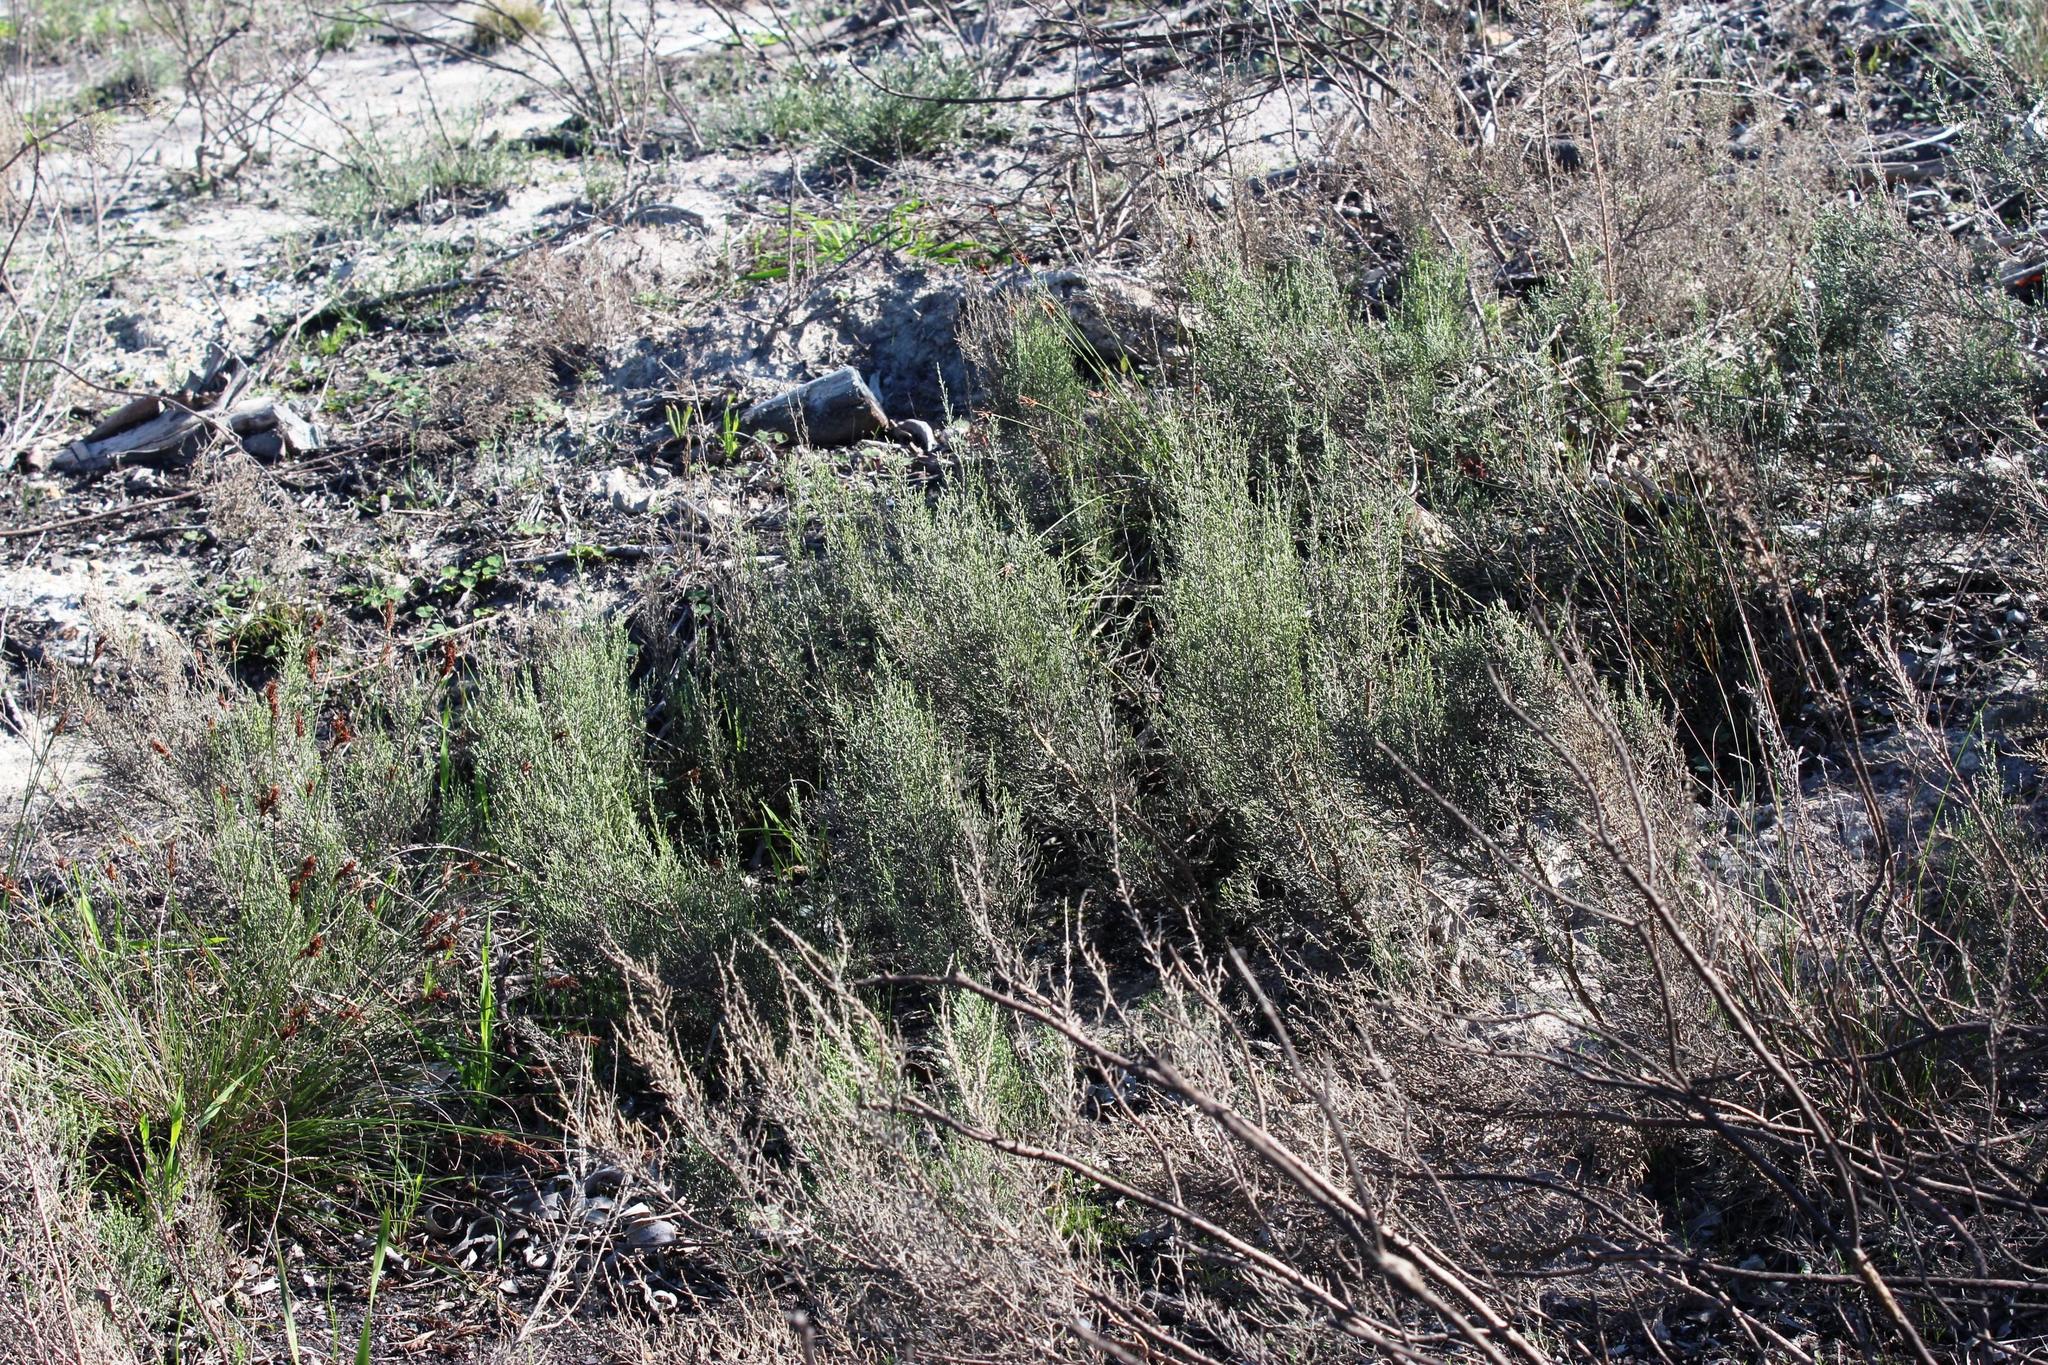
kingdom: Plantae
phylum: Tracheophyta
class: Magnoliopsida
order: Asterales
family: Asteraceae
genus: Dicerothamnus
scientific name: Dicerothamnus rhinocerotis
